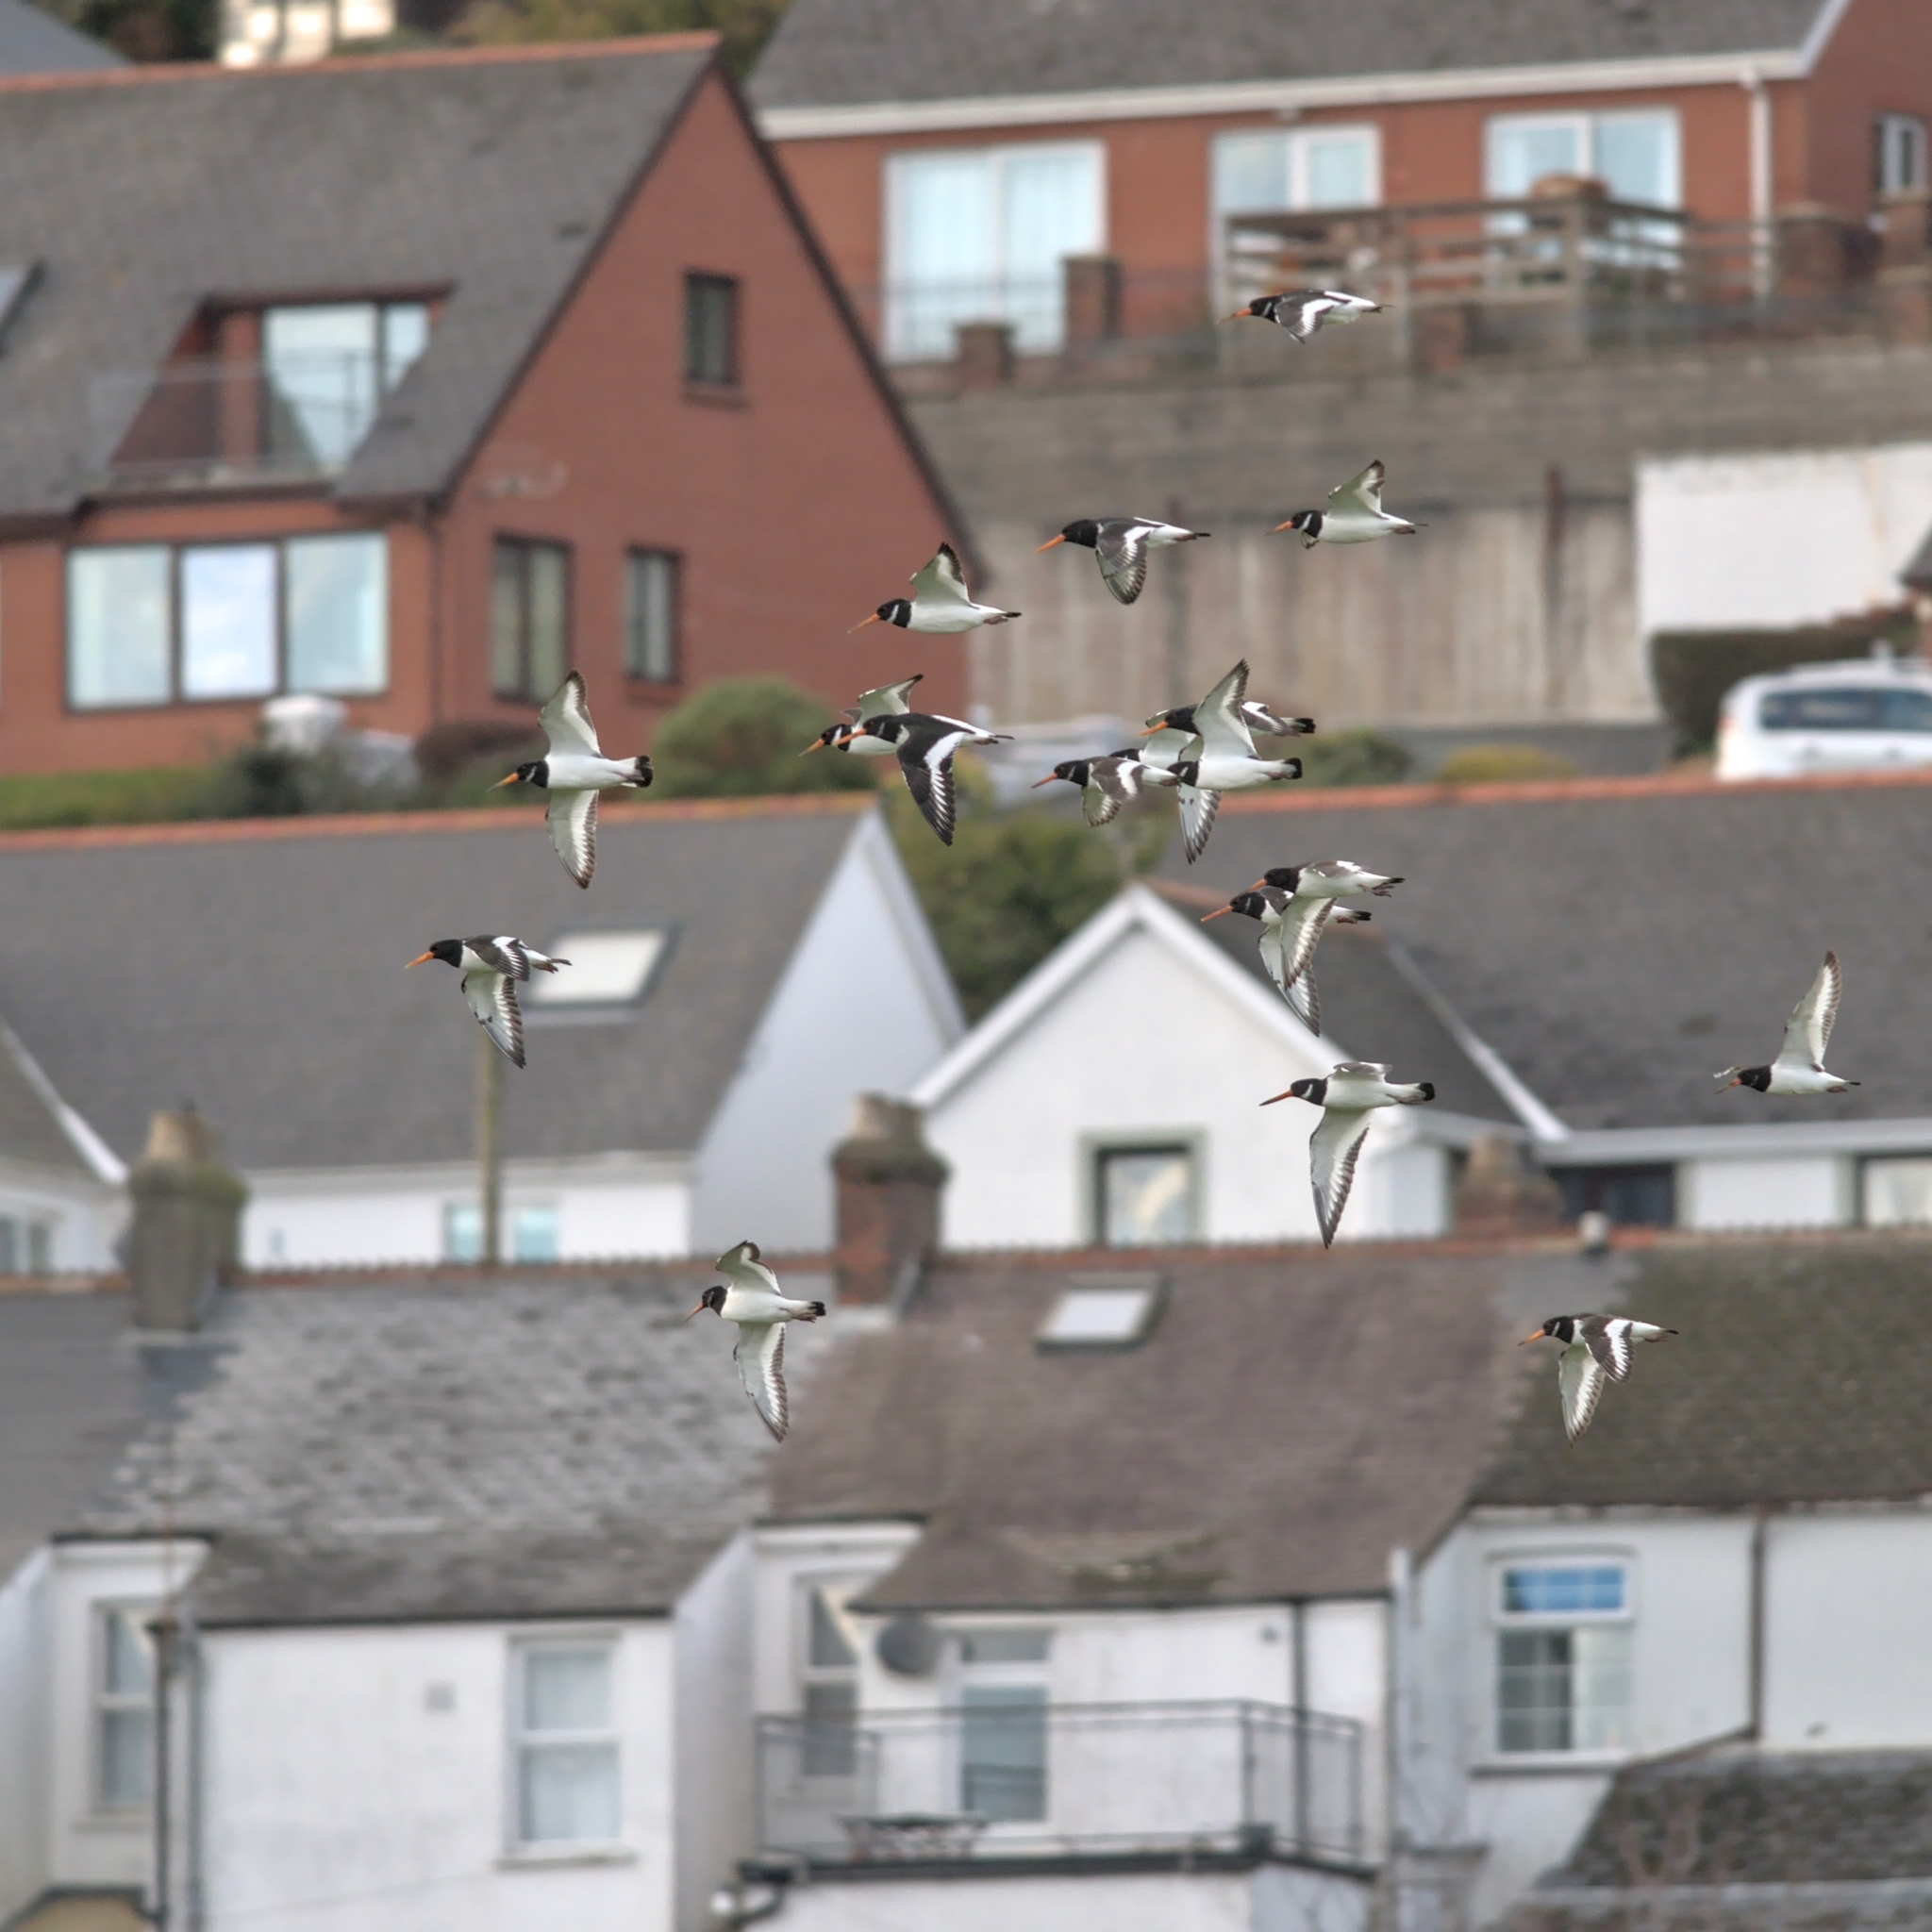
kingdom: Animalia
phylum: Chordata
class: Aves
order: Charadriiformes
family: Haematopodidae
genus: Haematopus
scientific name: Haematopus ostralegus
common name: Eurasian oystercatcher
